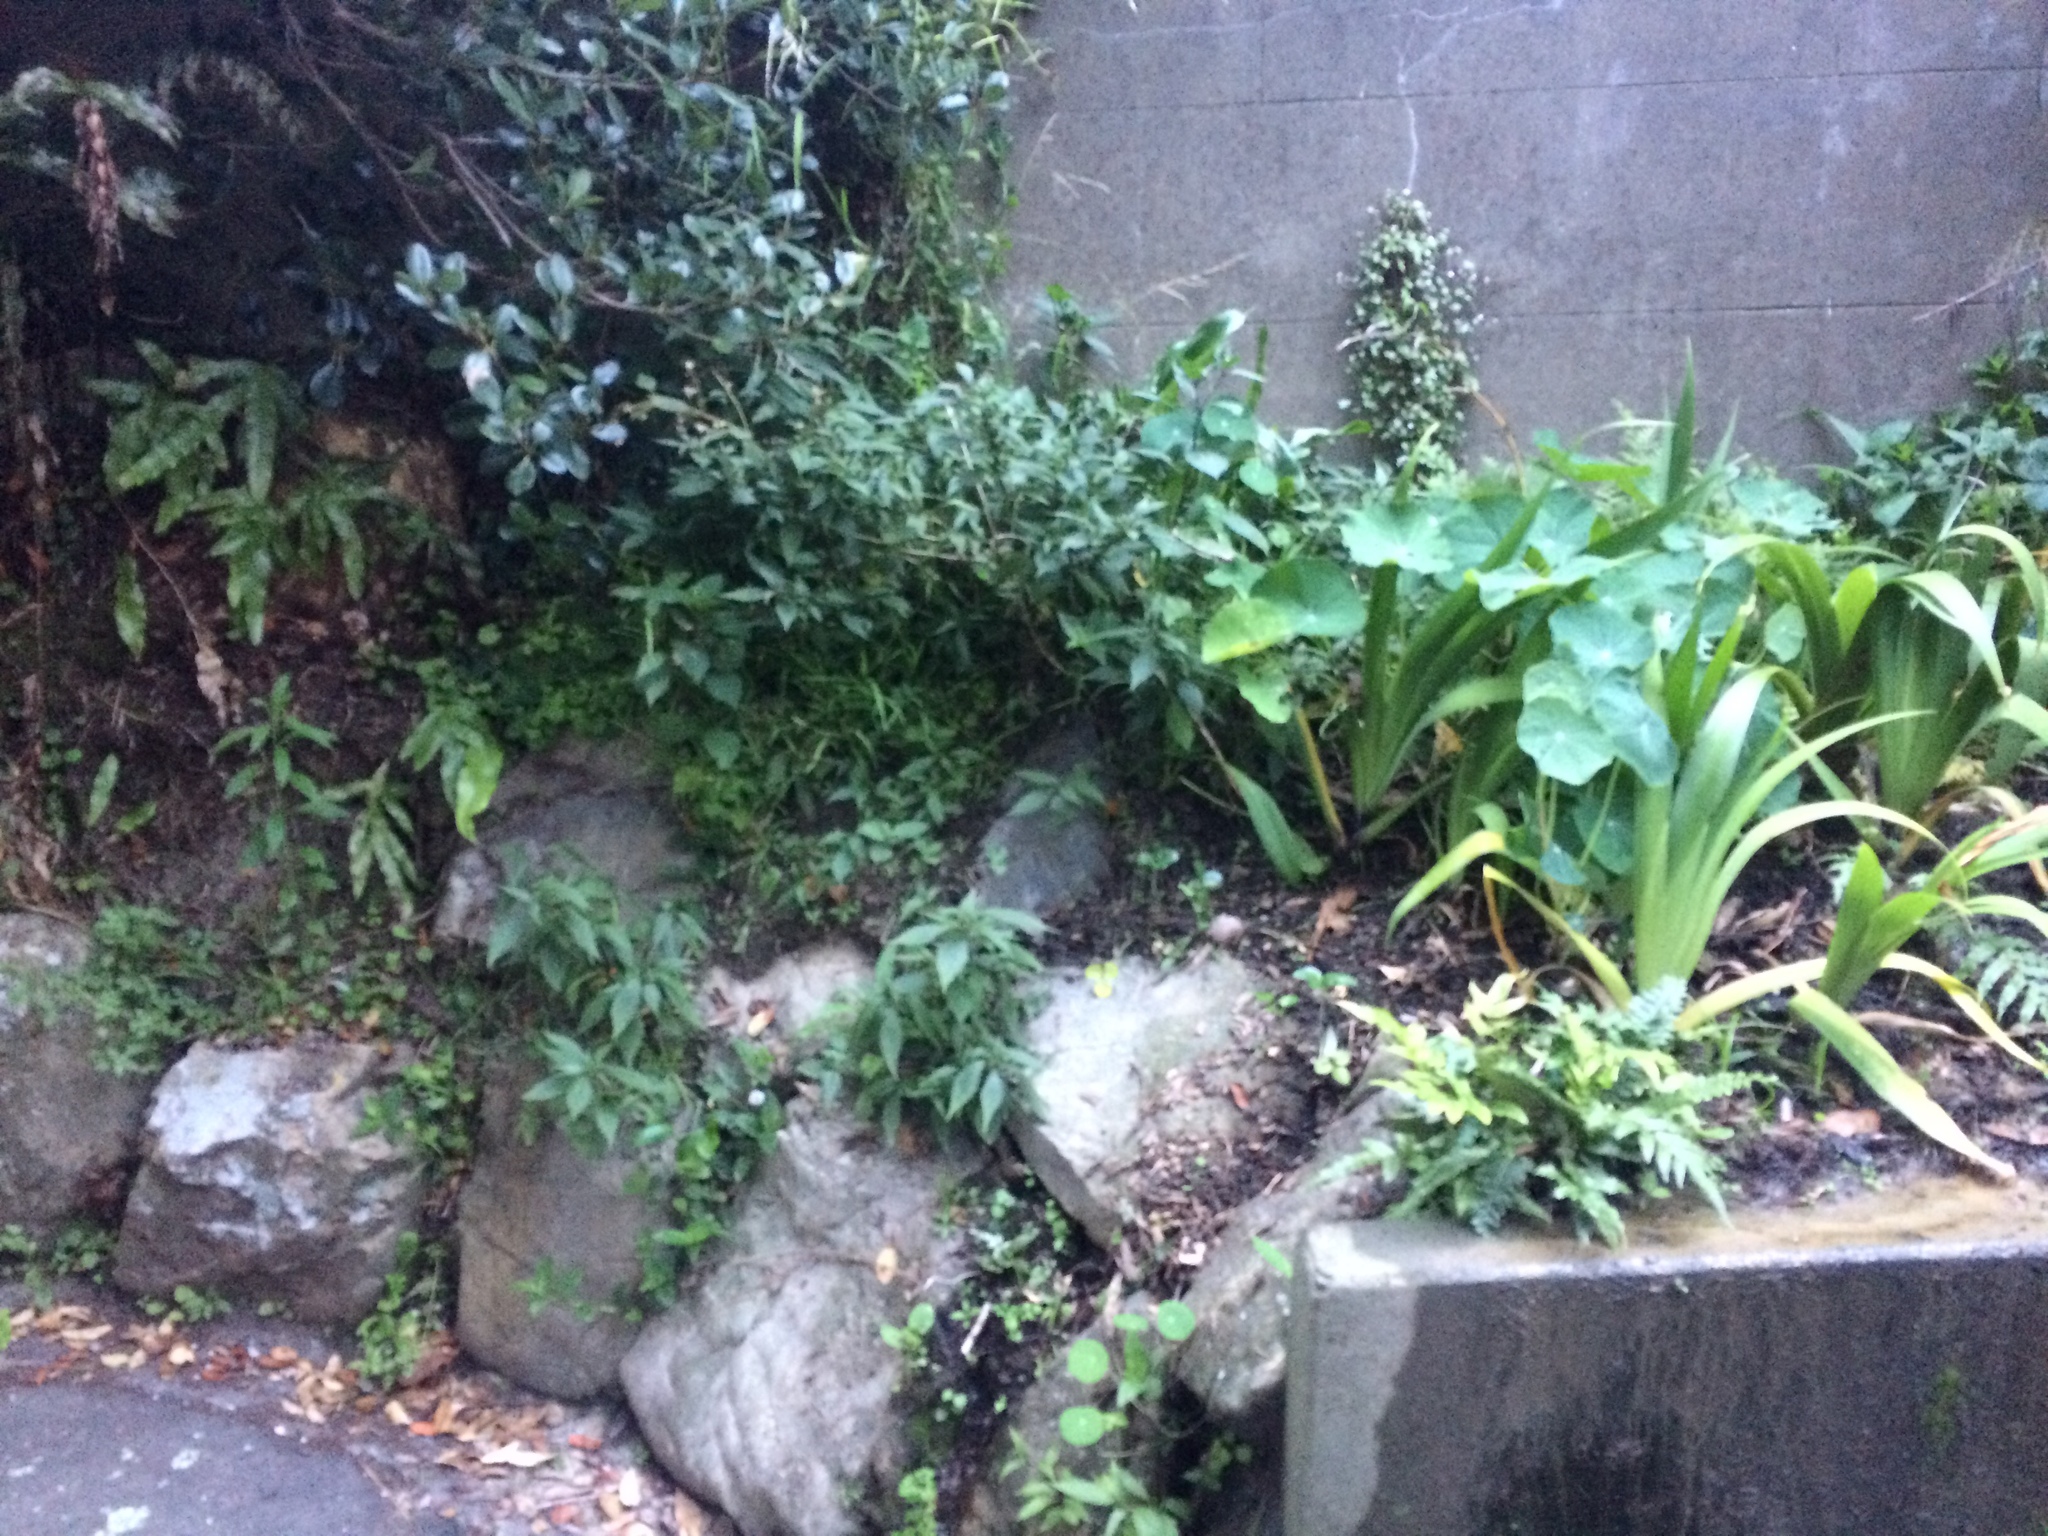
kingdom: Plantae
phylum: Tracheophyta
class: Magnoliopsida
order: Asterales
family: Asteraceae
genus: Ageratina
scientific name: Ageratina riparia
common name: Creeping croftonweed
